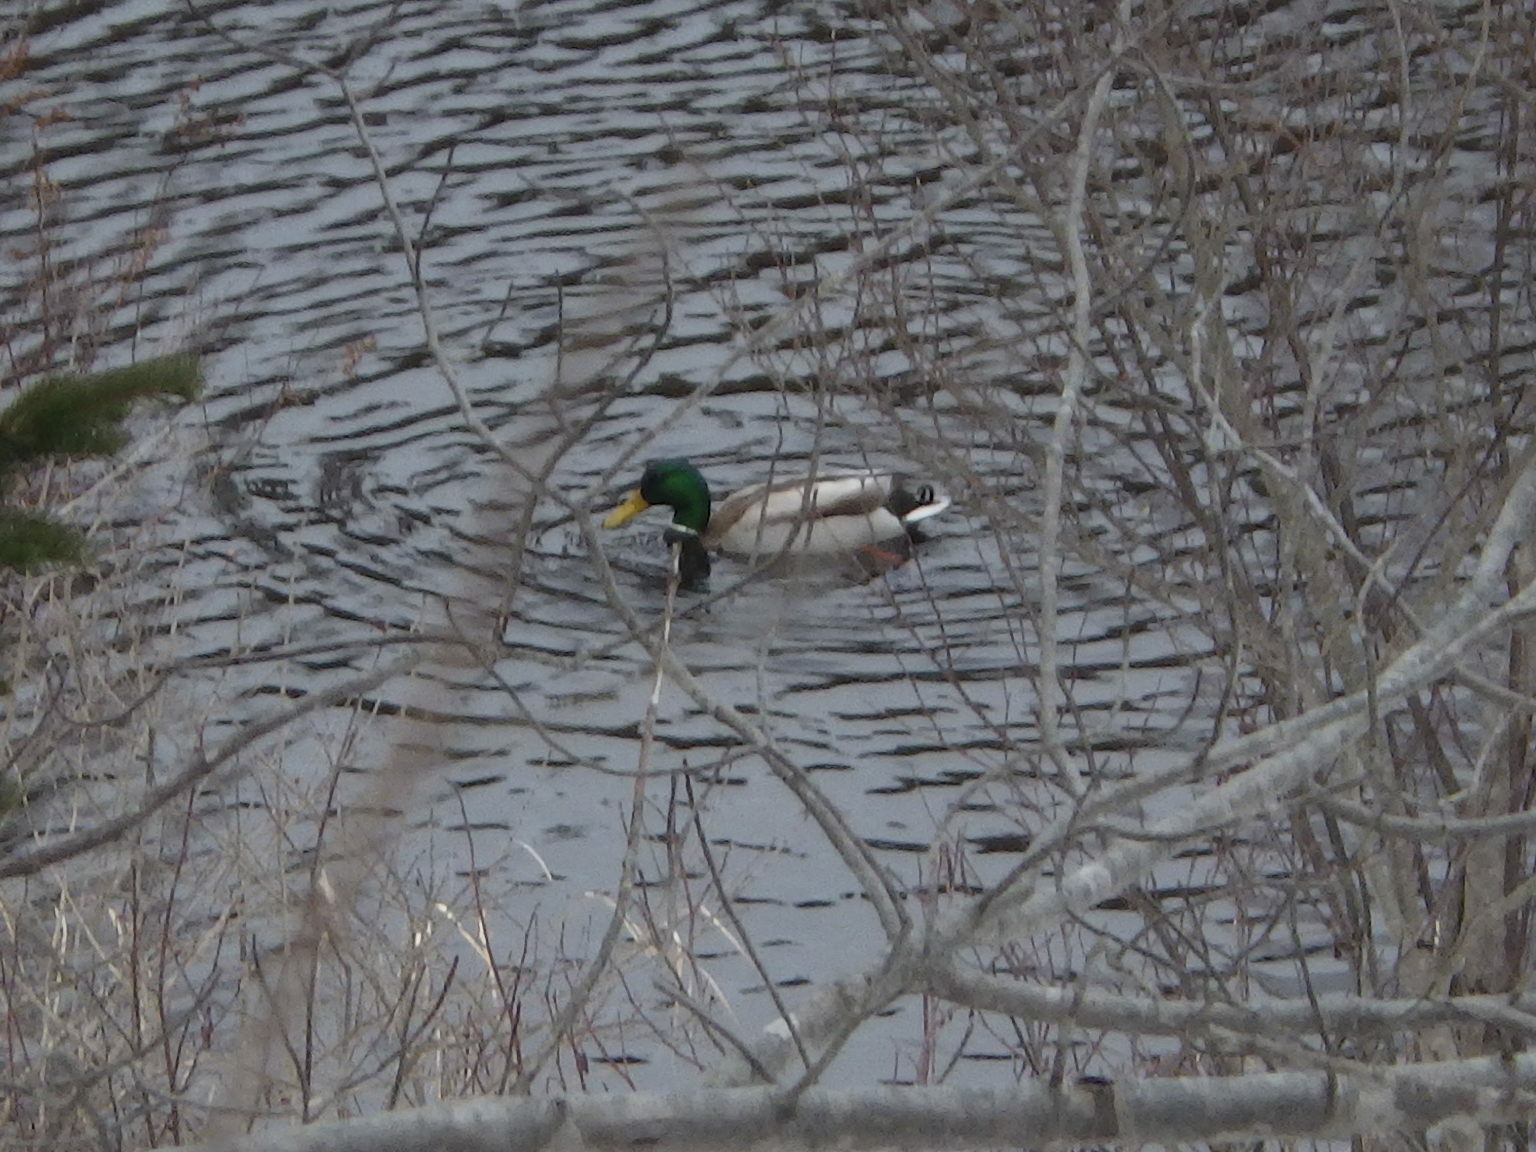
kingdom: Animalia
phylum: Chordata
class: Aves
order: Anseriformes
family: Anatidae
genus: Anas
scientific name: Anas platyrhynchos
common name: Mallard
